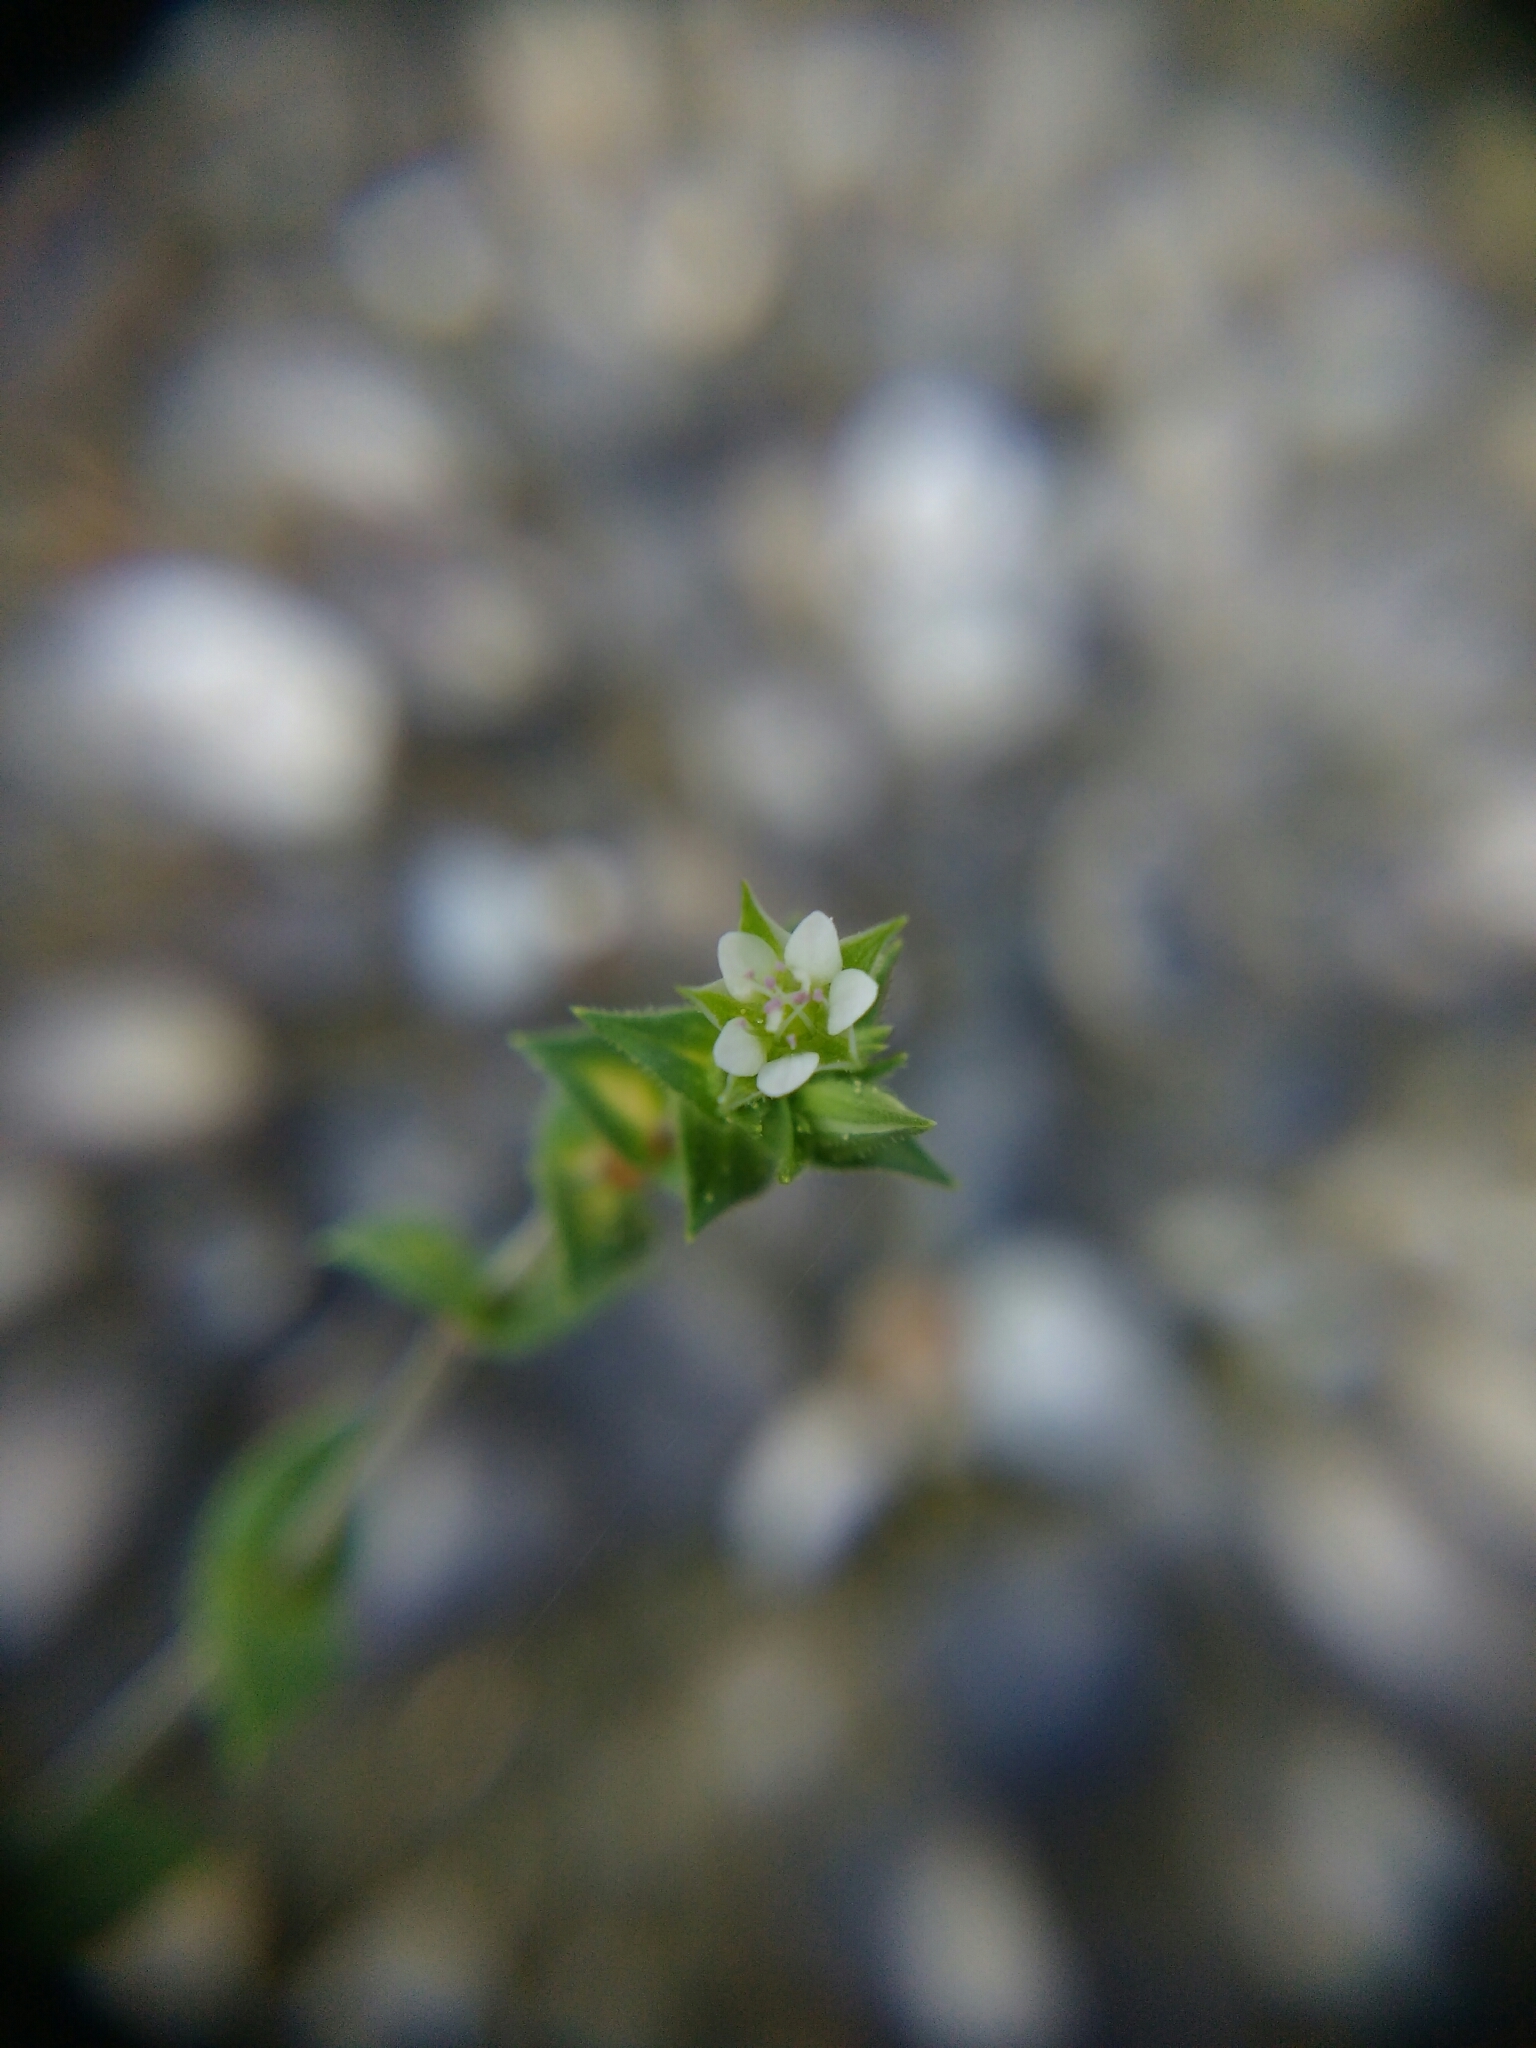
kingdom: Plantae
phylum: Tracheophyta
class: Magnoliopsida
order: Caryophyllales
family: Caryophyllaceae
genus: Arenaria
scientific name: Arenaria serpyllifolia
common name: Thyme-leaved sandwort
